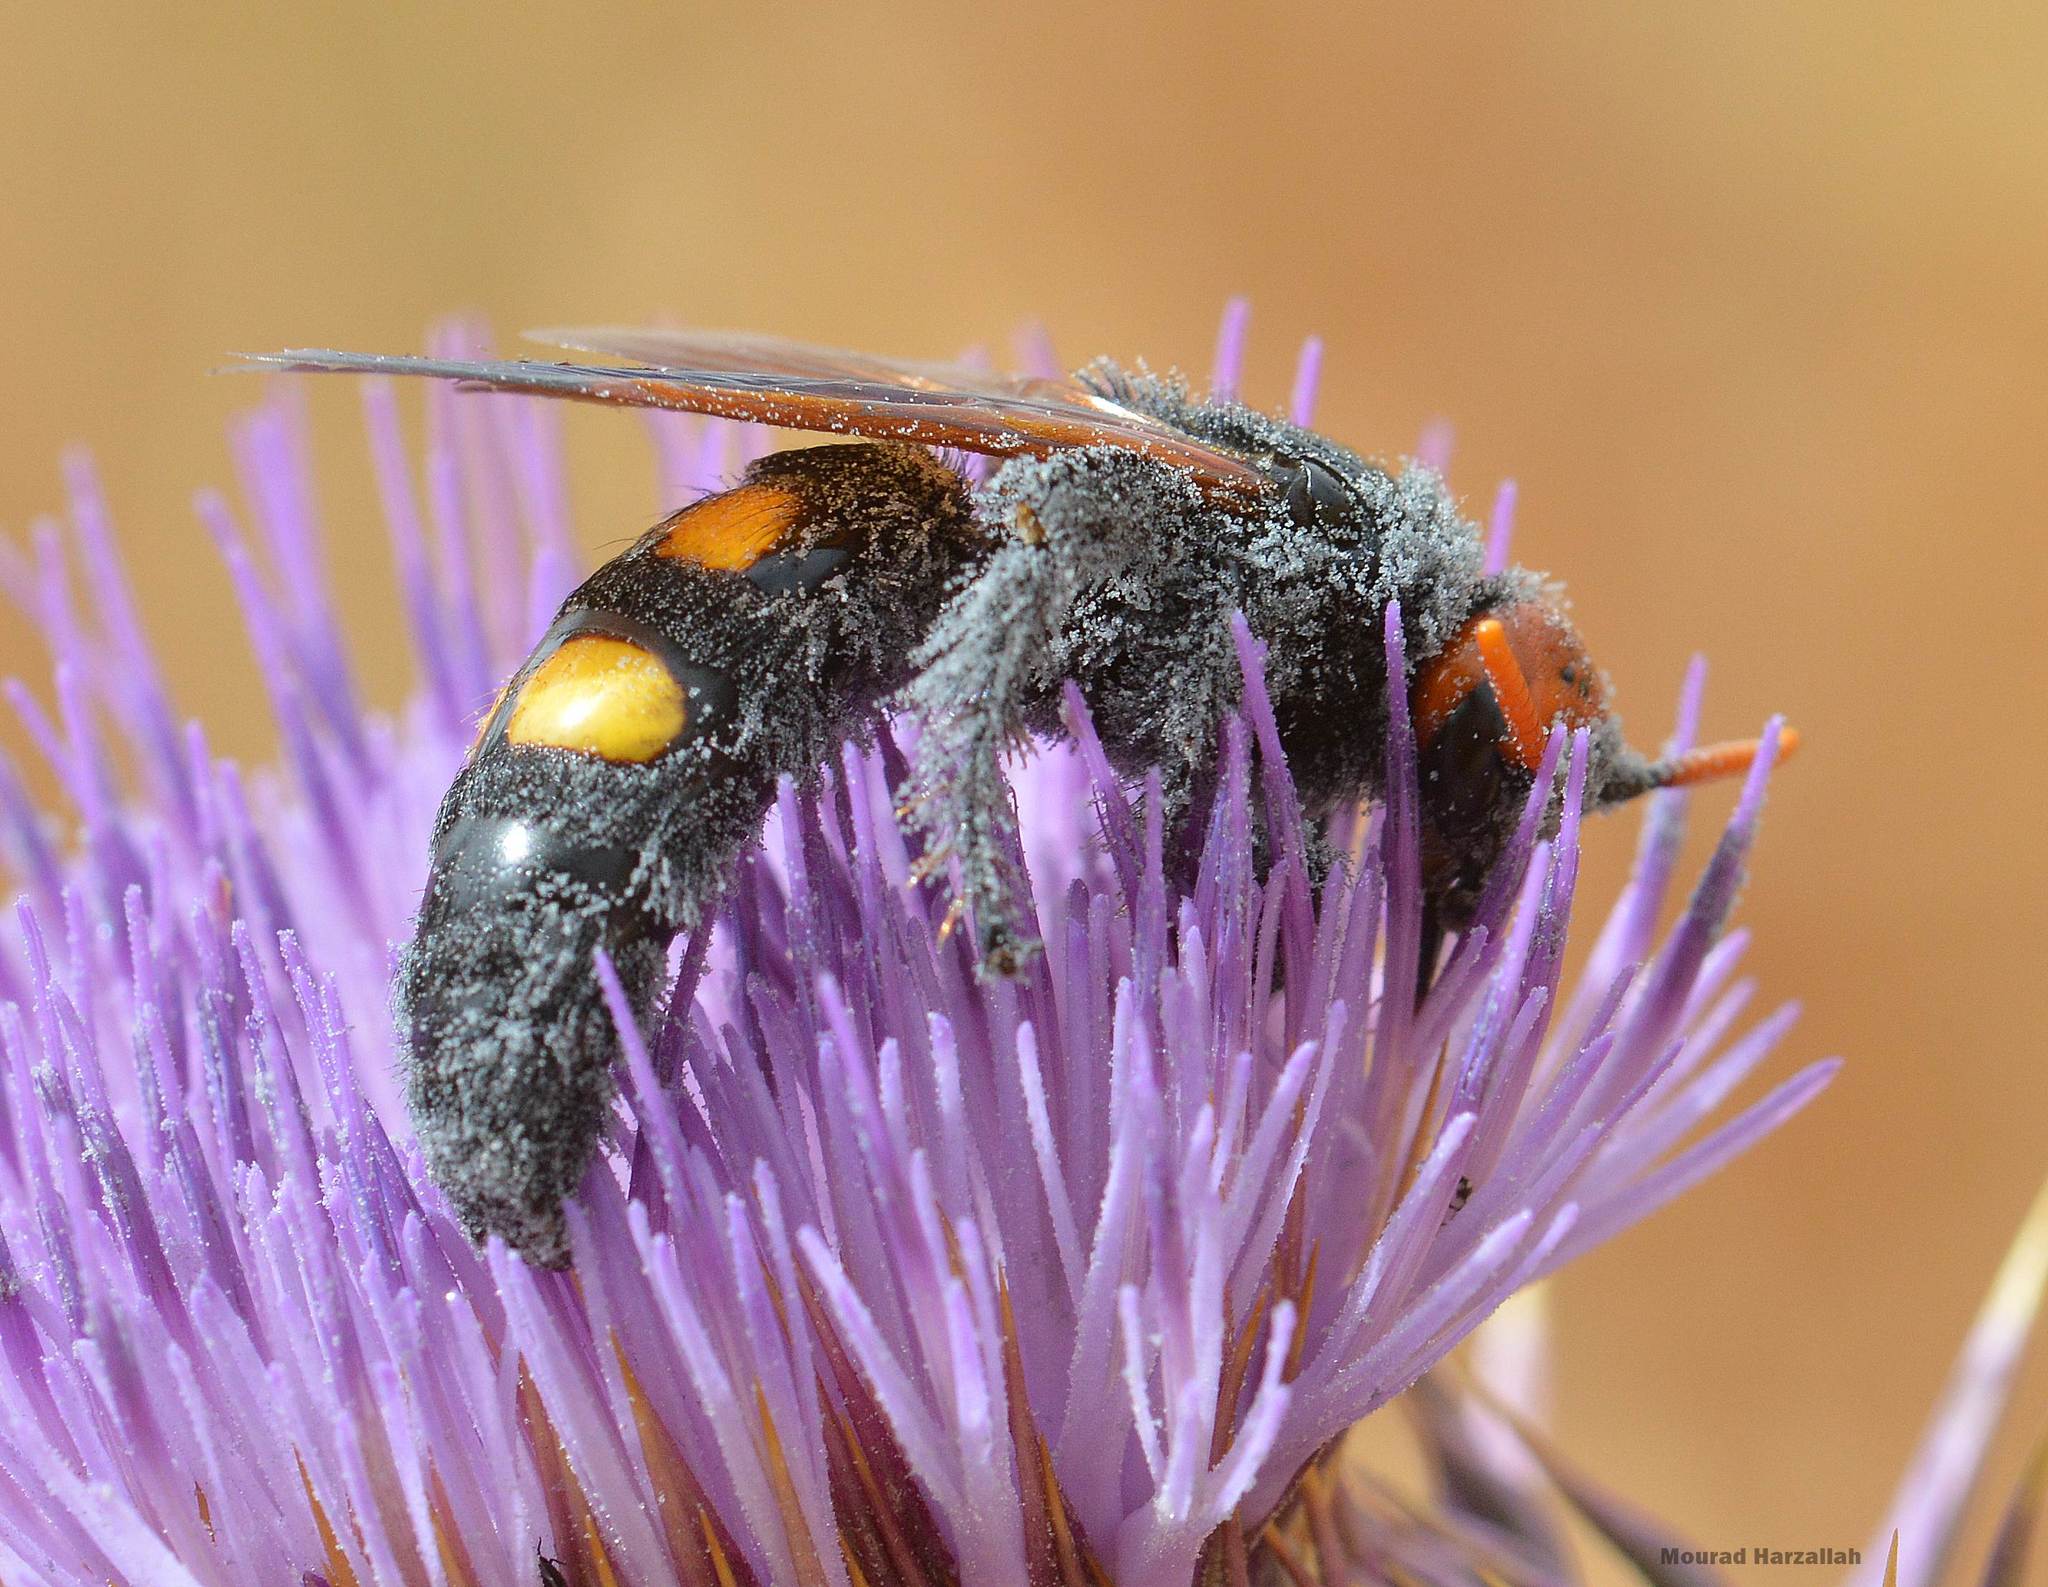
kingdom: Animalia
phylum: Arthropoda
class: Insecta
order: Hymenoptera
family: Scoliidae
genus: Megascolia
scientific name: Megascolia bidens
